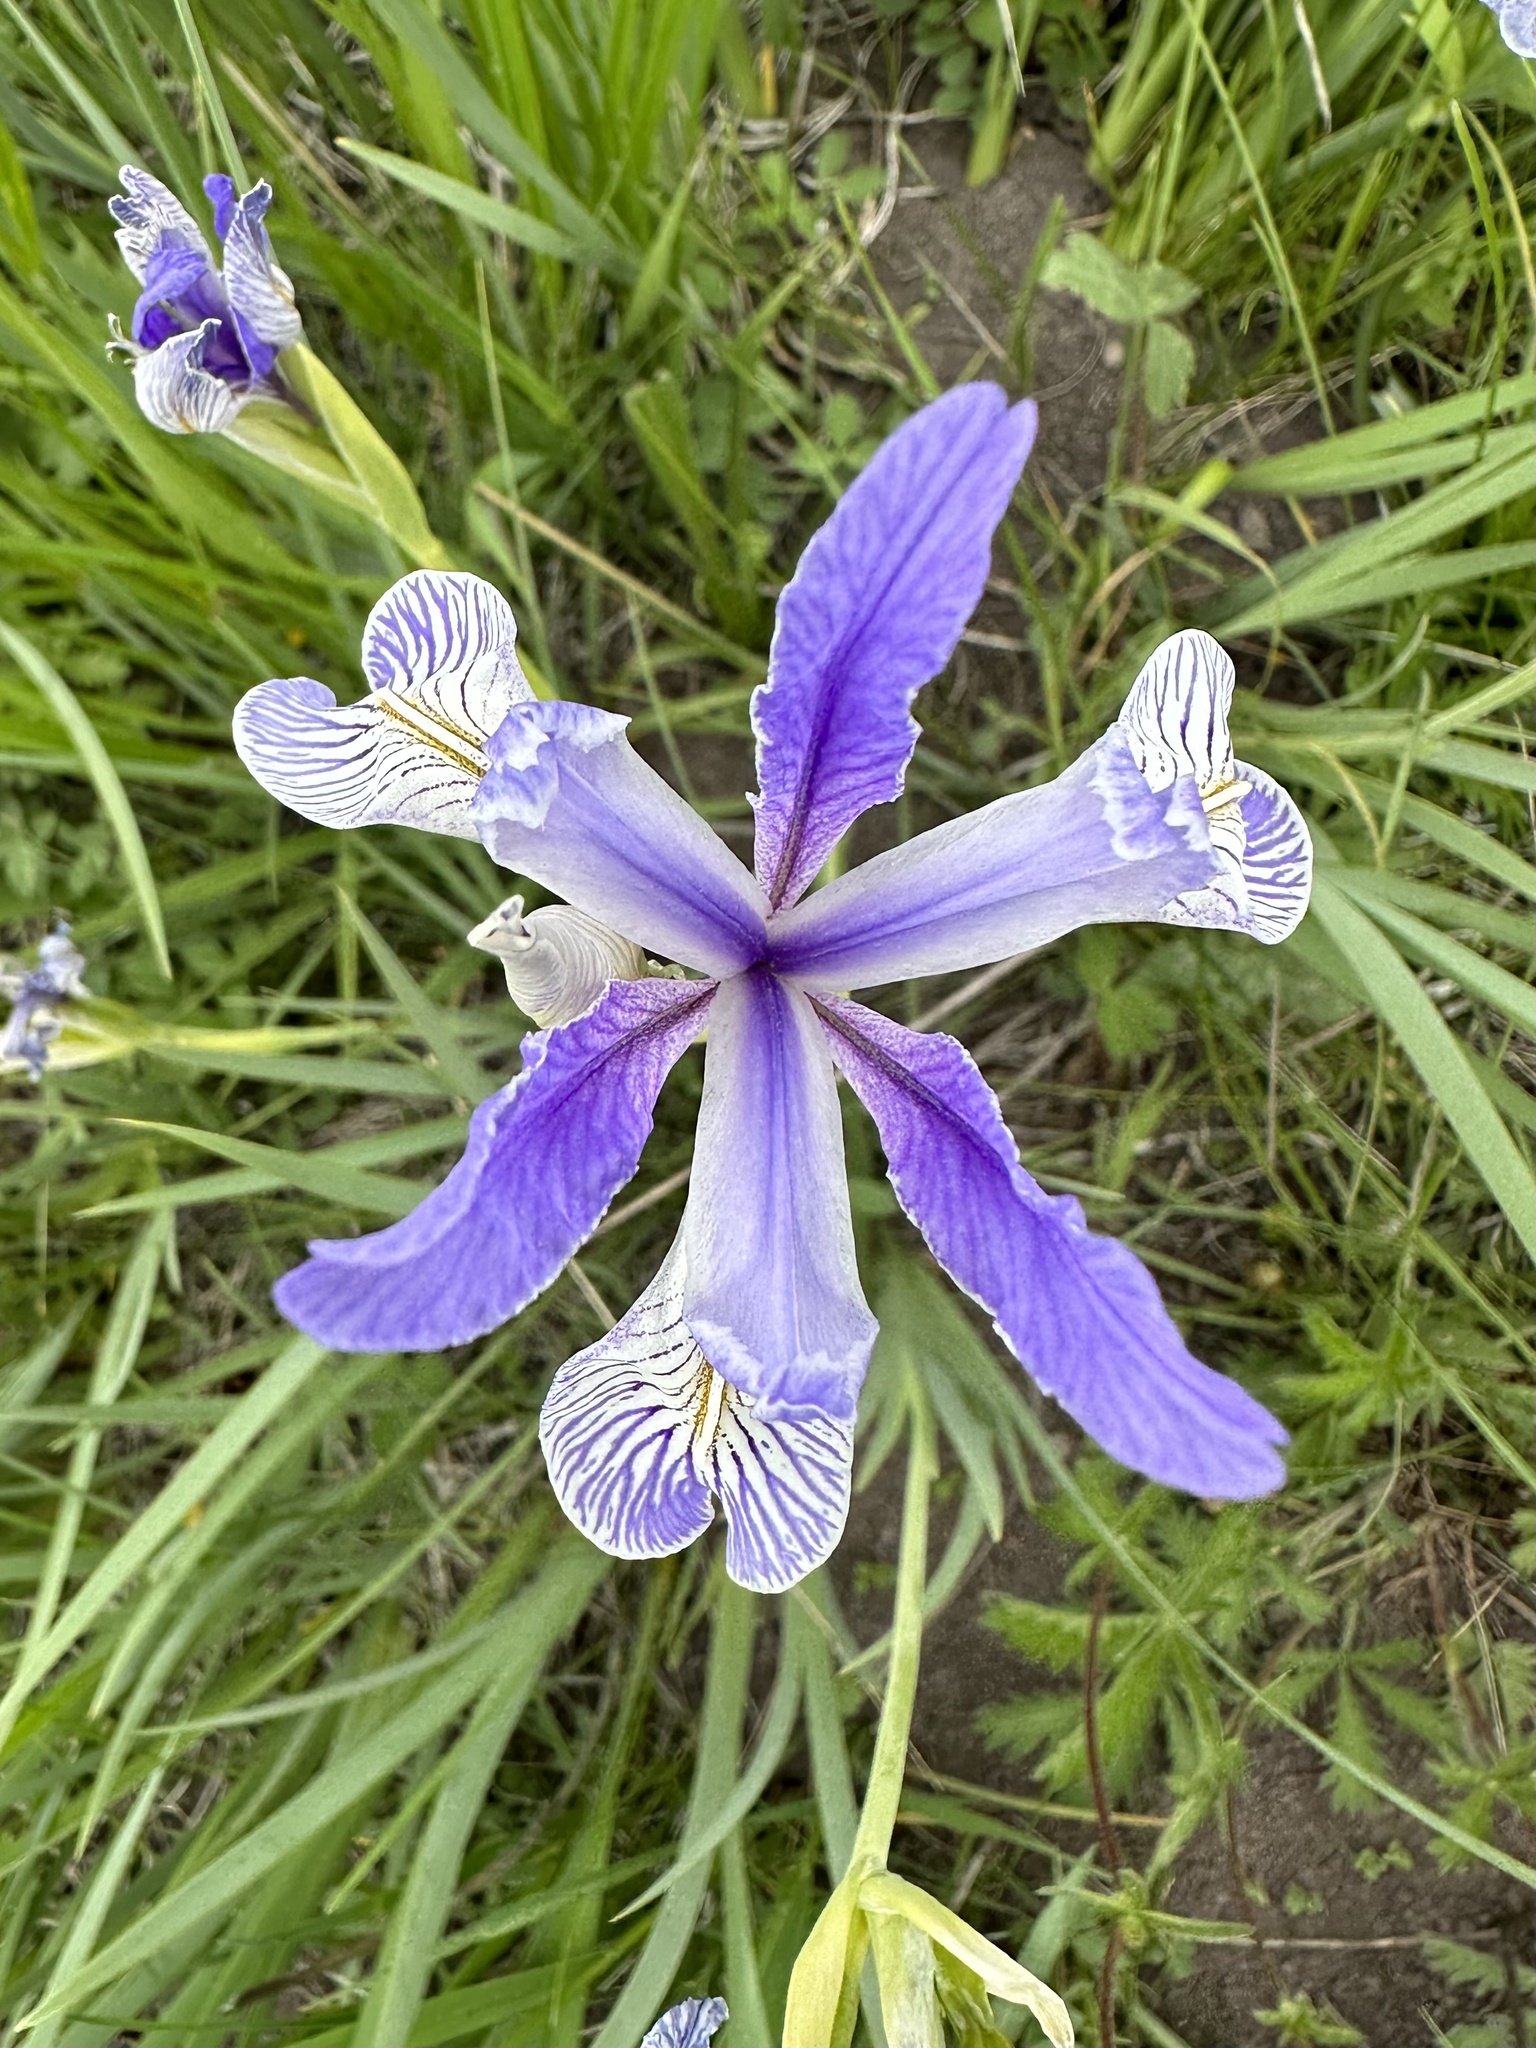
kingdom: Plantae
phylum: Tracheophyta
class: Liliopsida
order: Asparagales
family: Iridaceae
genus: Iris
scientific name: Iris missouriensis
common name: Rocky mountain iris
